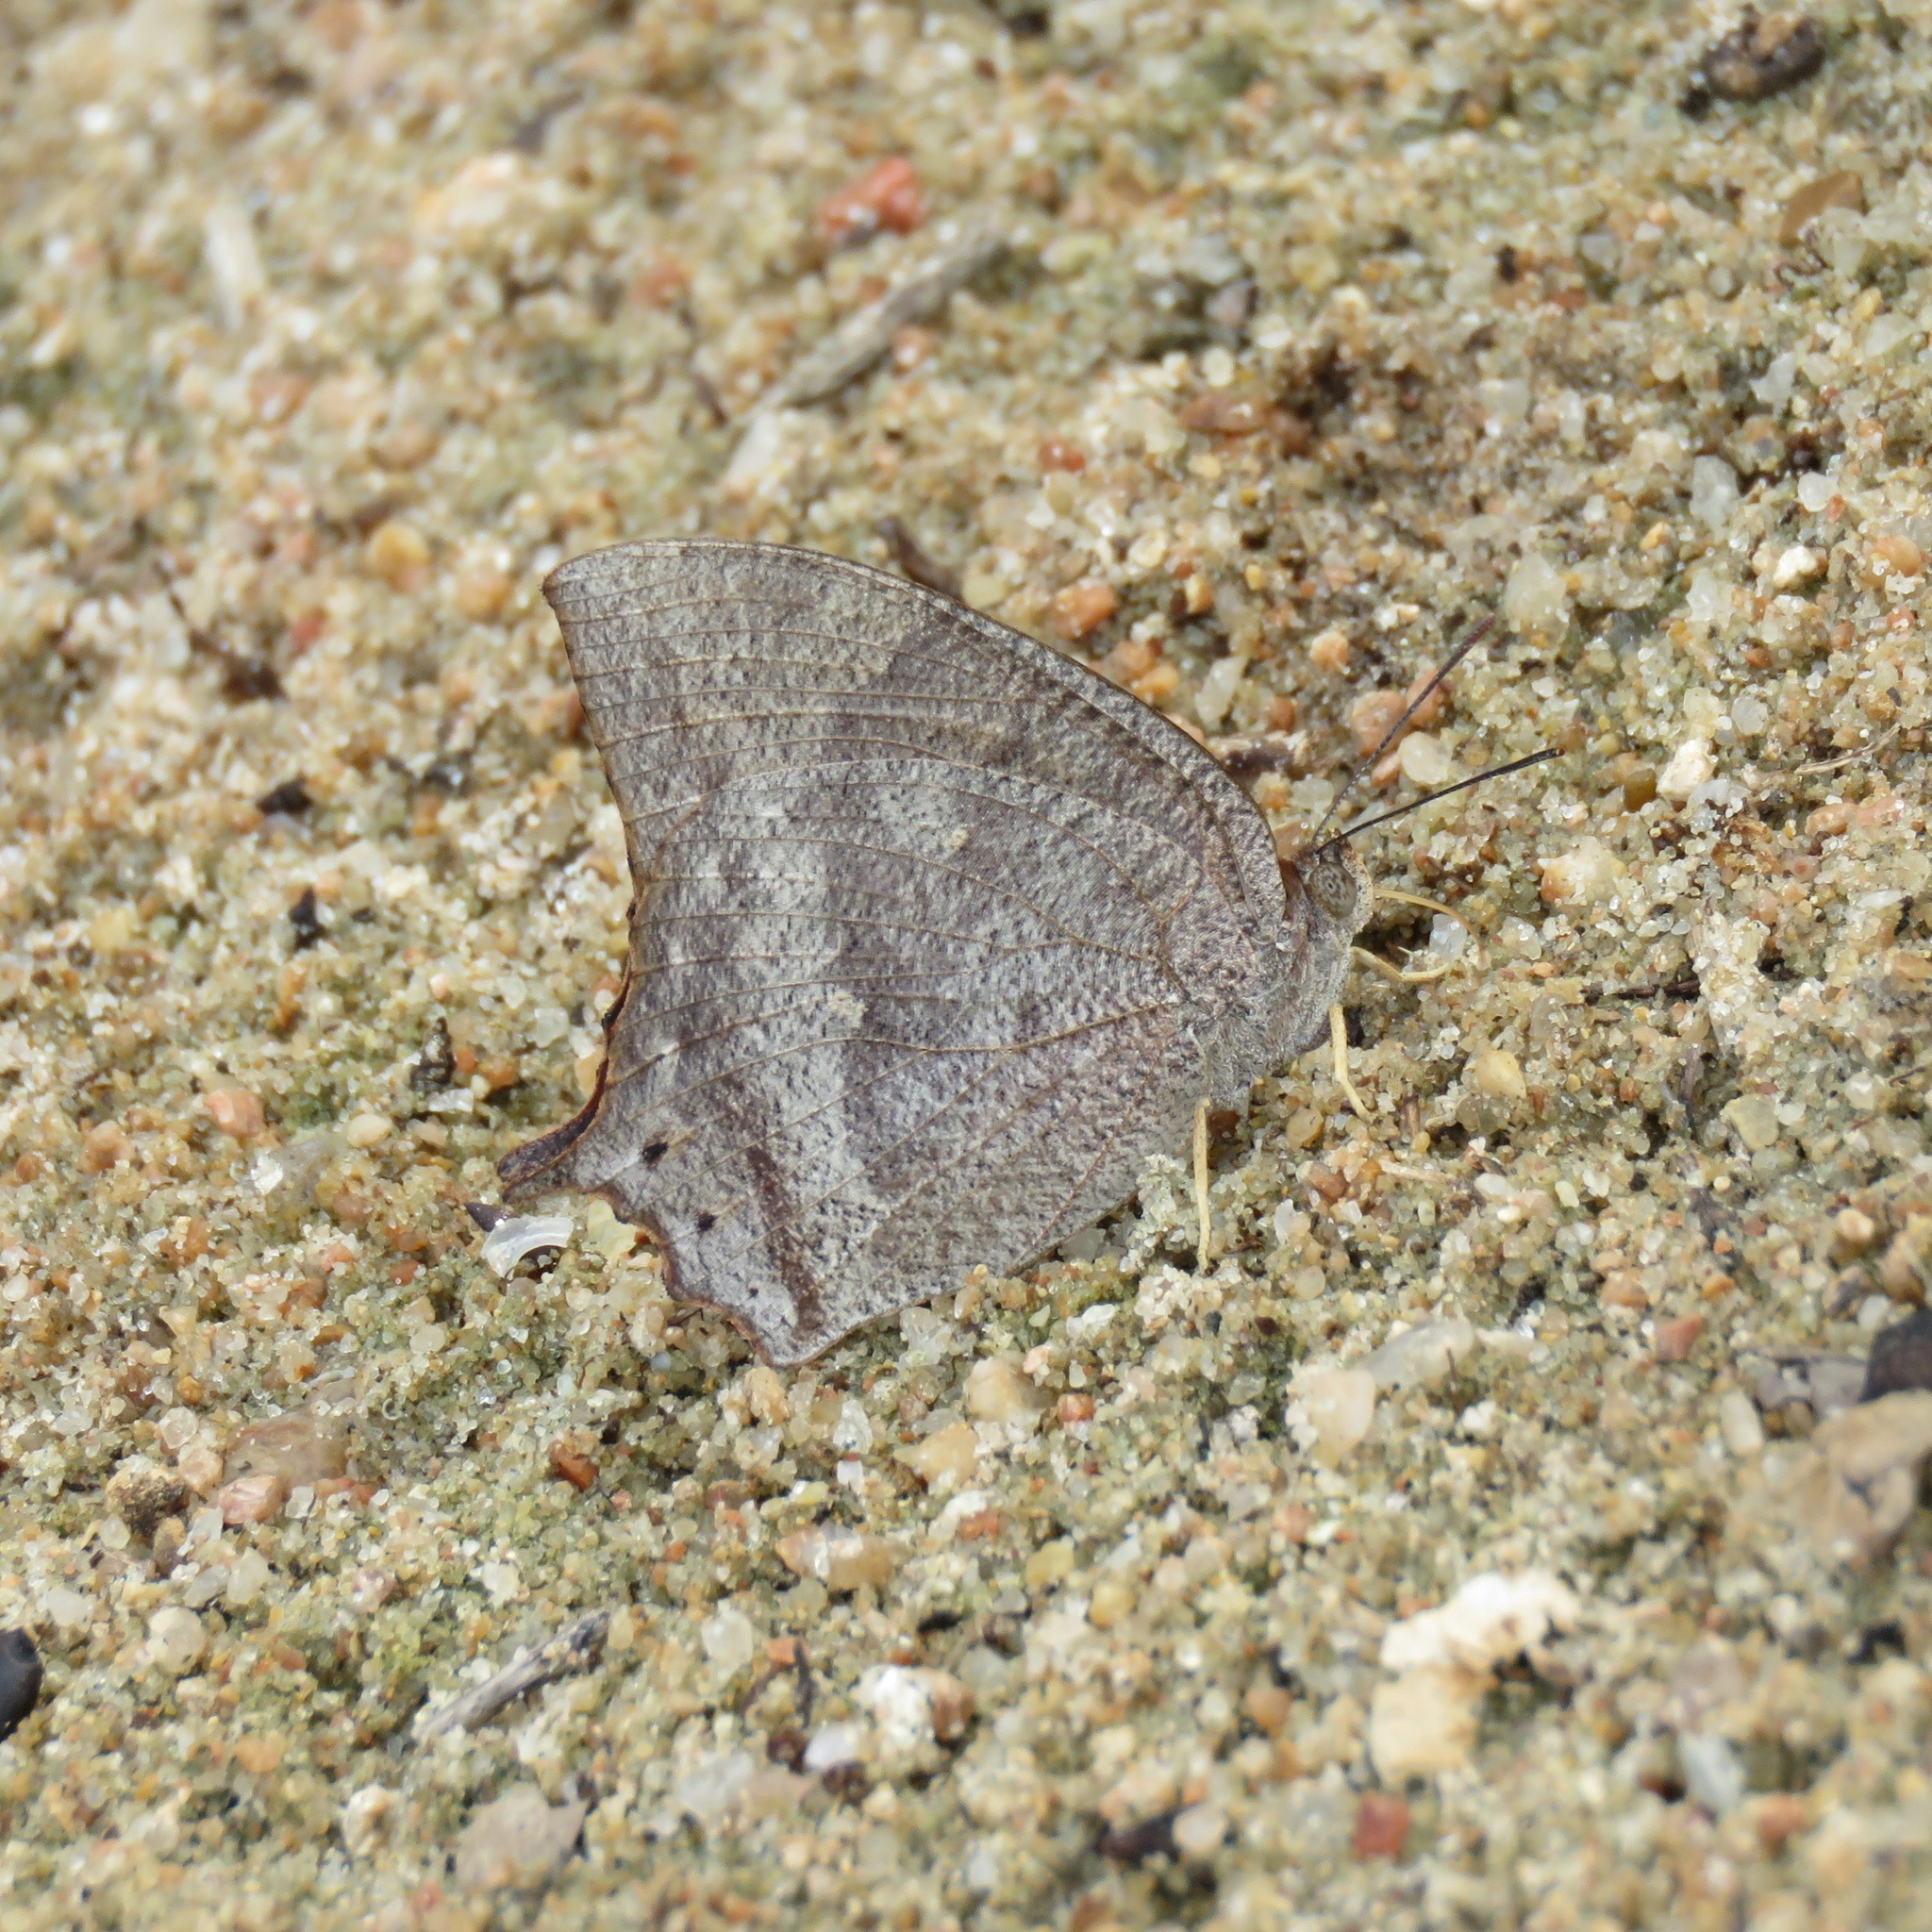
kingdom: Animalia
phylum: Arthropoda
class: Insecta
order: Lepidoptera
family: Nymphalidae
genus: Anaea
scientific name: Anaea andria
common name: Goatweed leafwing
